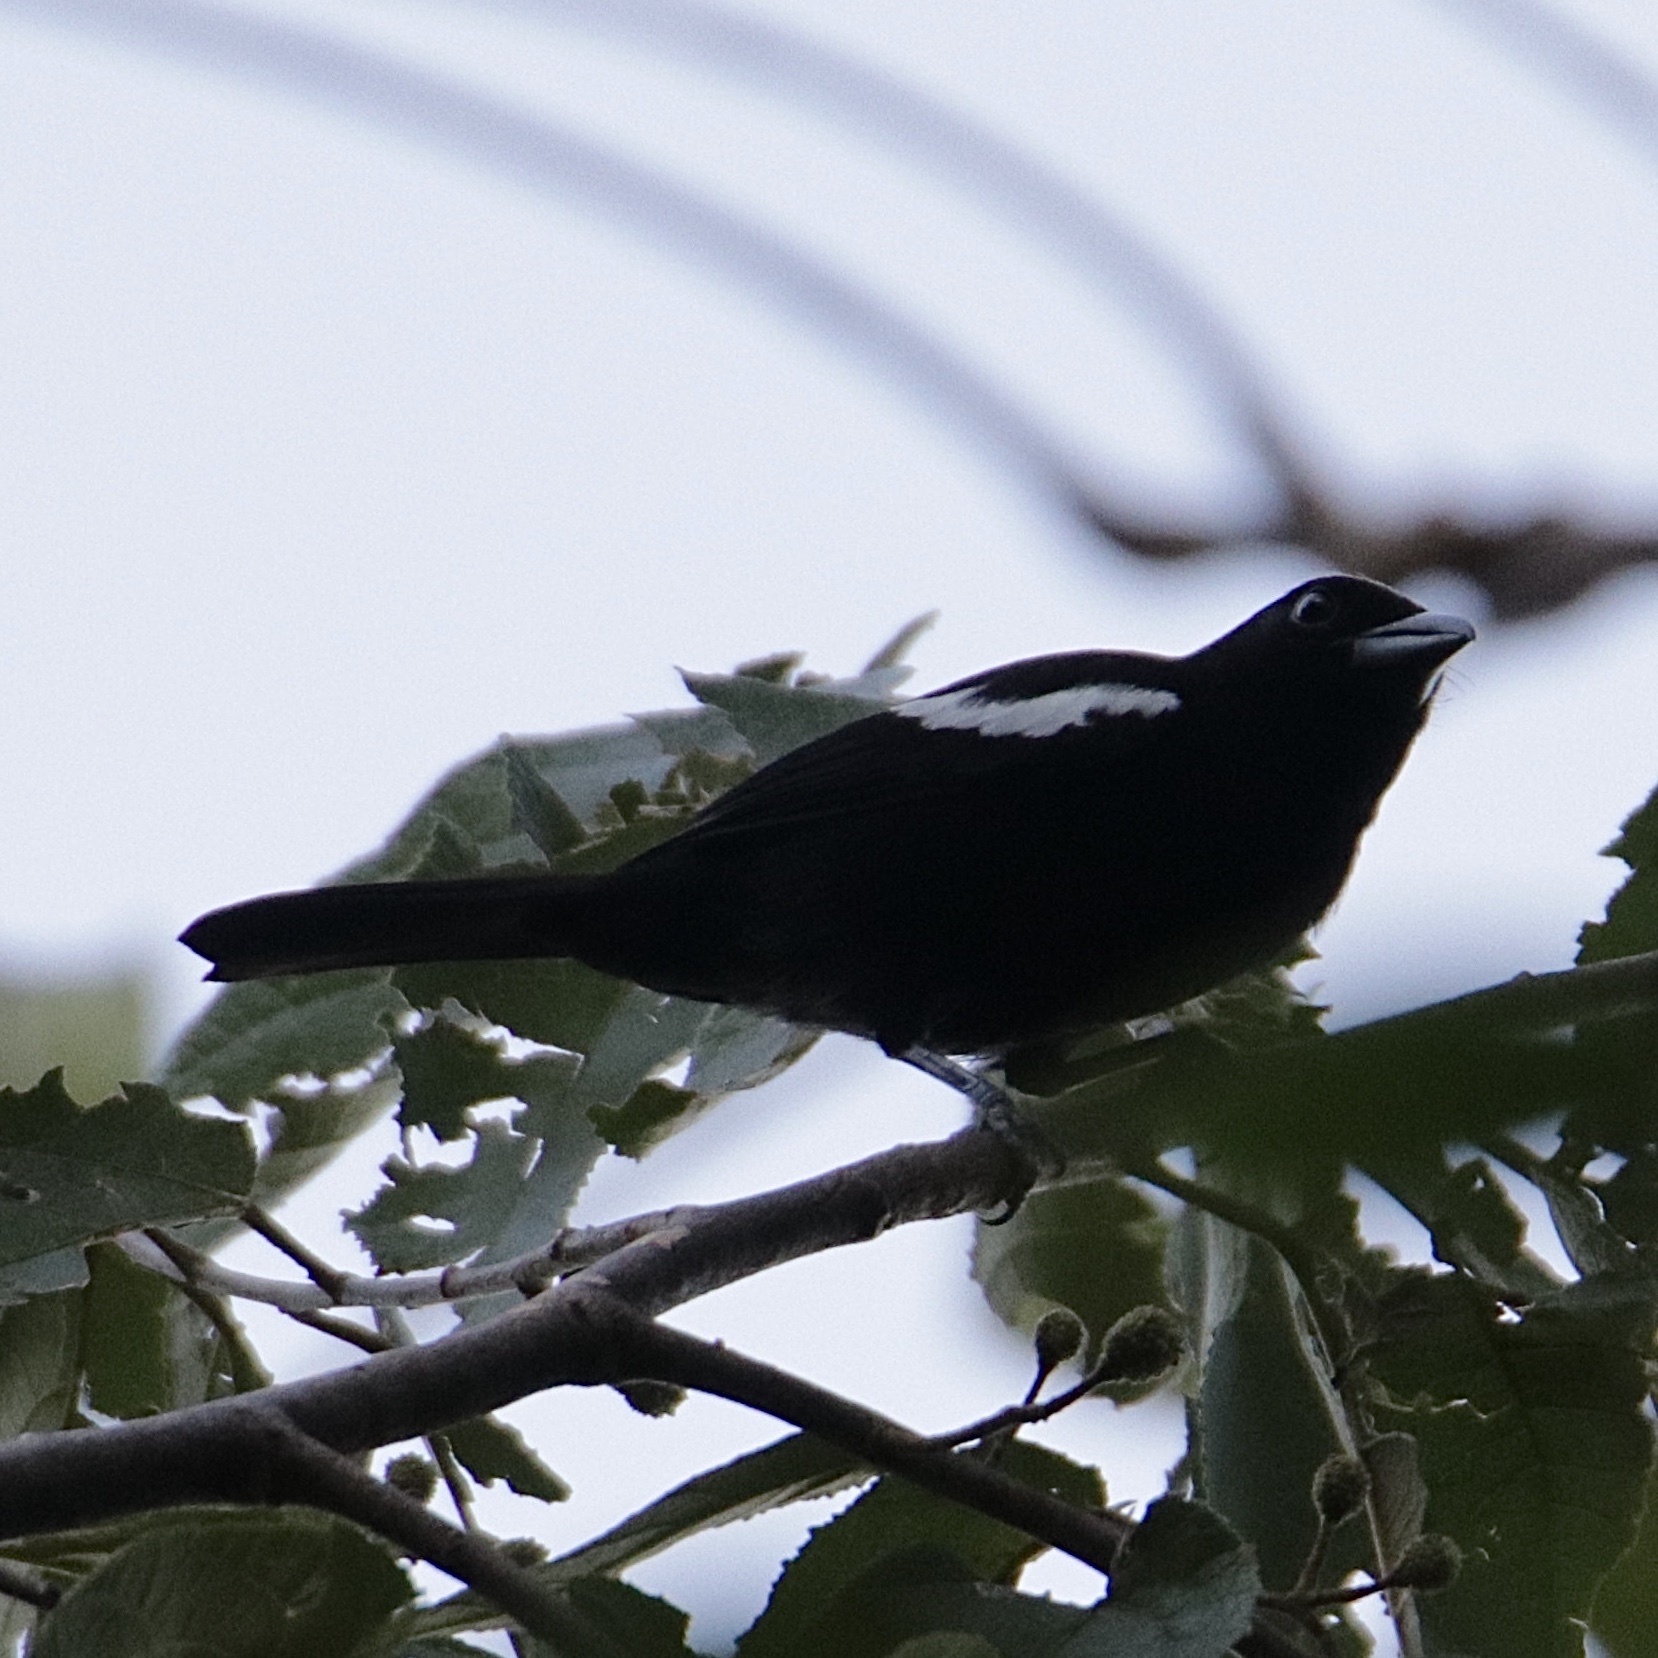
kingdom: Animalia
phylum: Chordata
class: Aves
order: Passeriformes
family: Thraupidae
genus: Loriotus
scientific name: Loriotus luctuosus
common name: White-shouldered tanager
